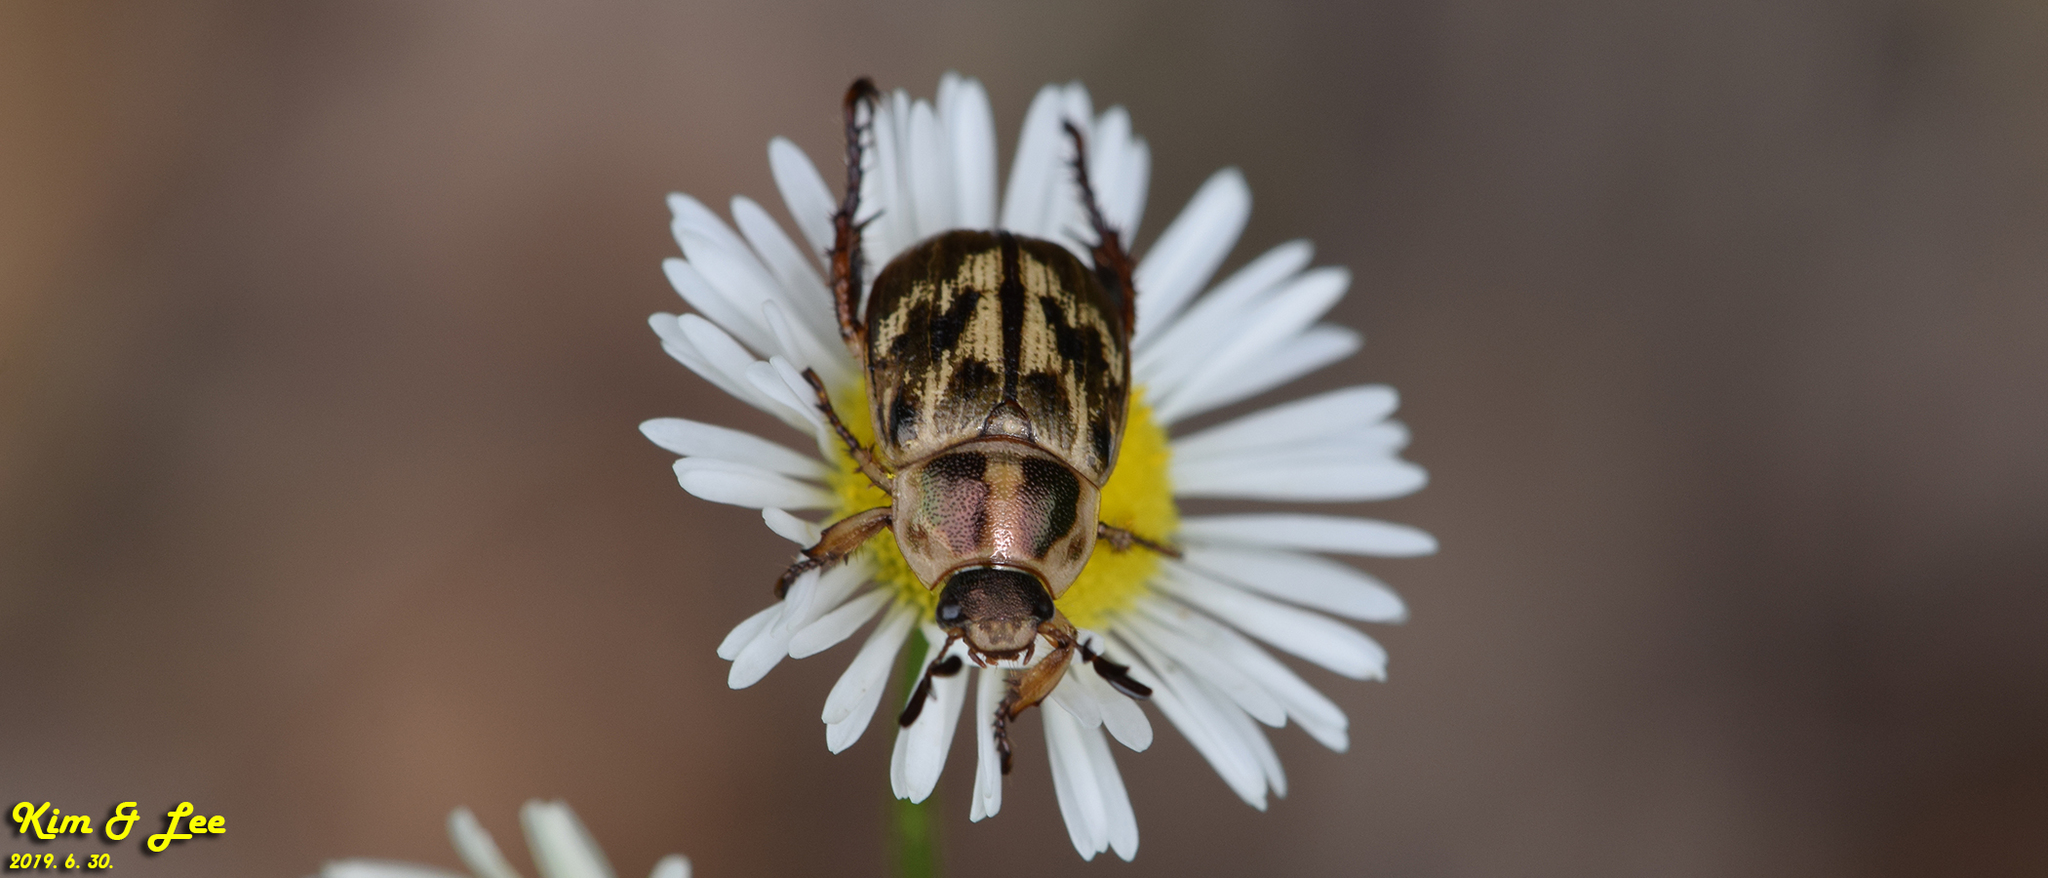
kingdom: Animalia
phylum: Arthropoda
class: Insecta
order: Coleoptera
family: Scarabaeidae
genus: Exomala
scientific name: Exomala orientalis
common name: Oriental beetle
